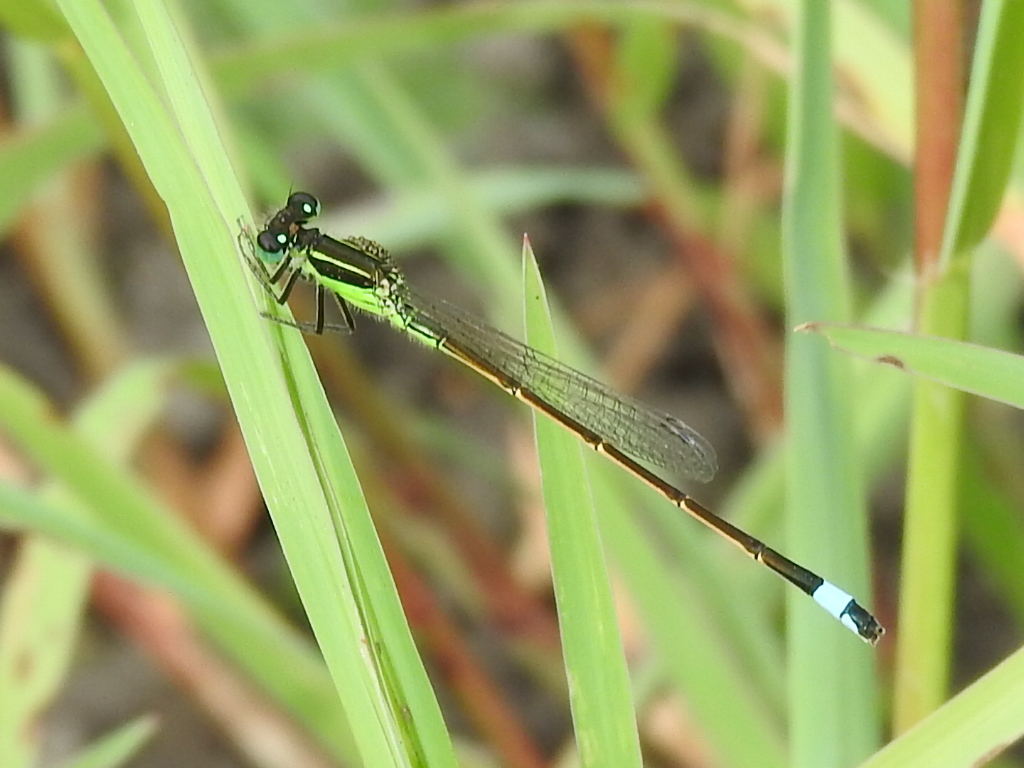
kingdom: Animalia
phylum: Arthropoda
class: Insecta
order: Odonata
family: Coenagrionidae
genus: Ischnura
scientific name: Ischnura ramburii
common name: Rambur's forktail
